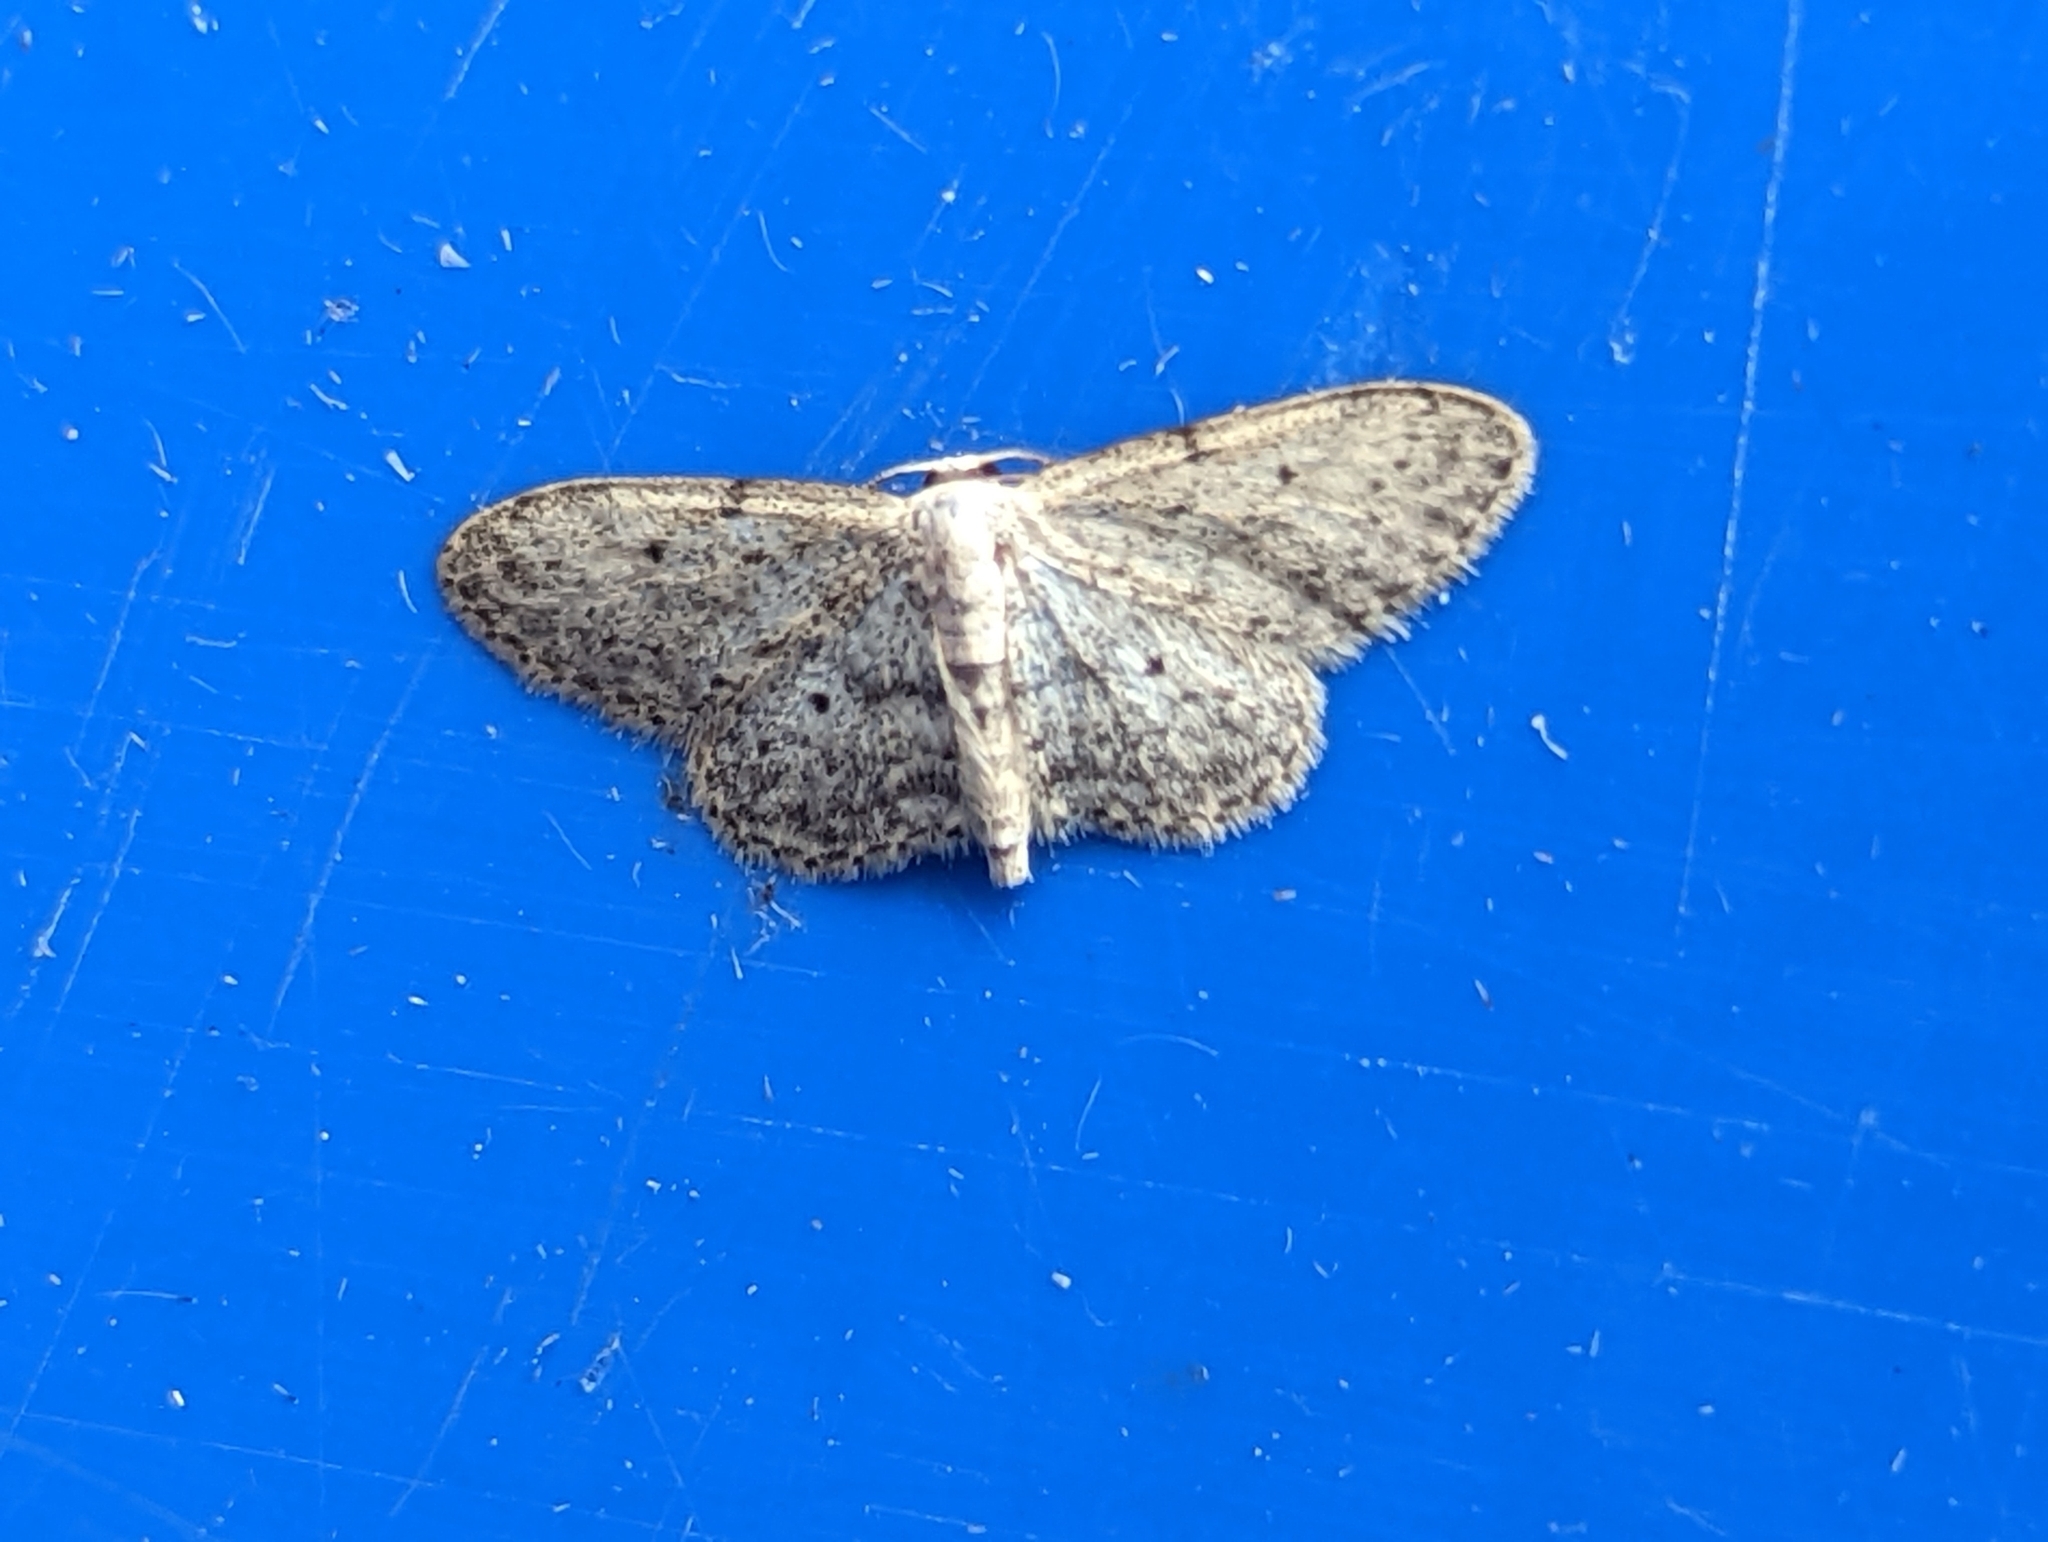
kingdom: Animalia
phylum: Arthropoda
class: Insecta
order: Lepidoptera
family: Geometridae
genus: Idaea
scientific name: Idaea seriata
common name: Small dusty wave
